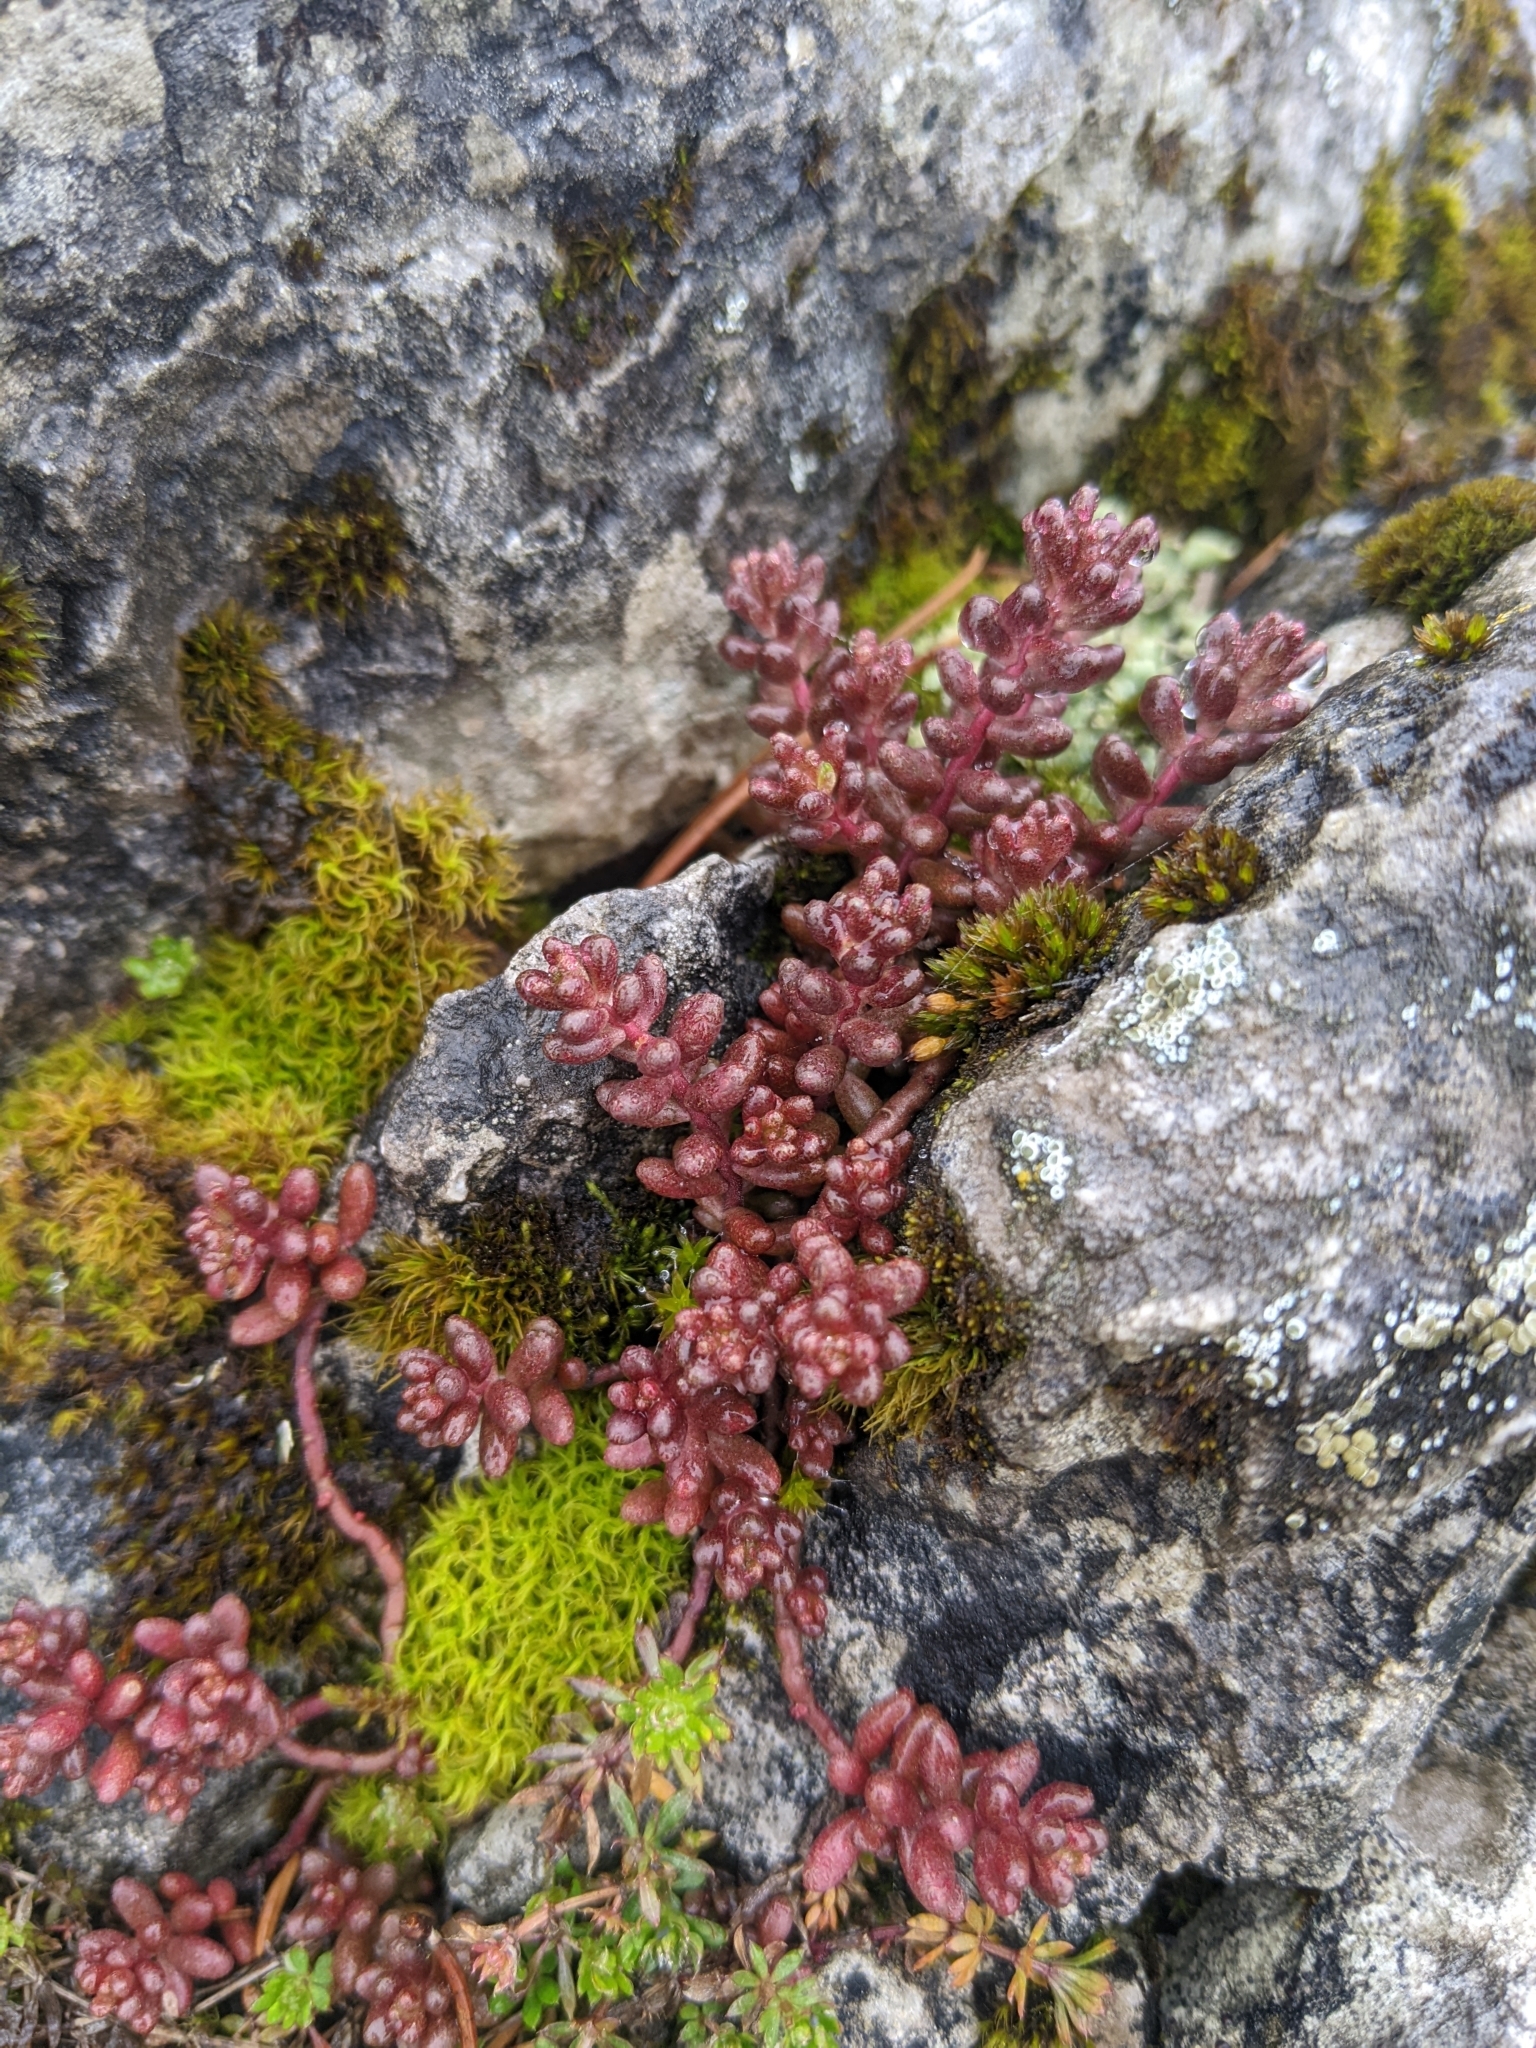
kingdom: Plantae
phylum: Tracheophyta
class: Magnoliopsida
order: Saxifragales
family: Crassulaceae
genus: Sedum
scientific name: Sedum album
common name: White stonecrop
